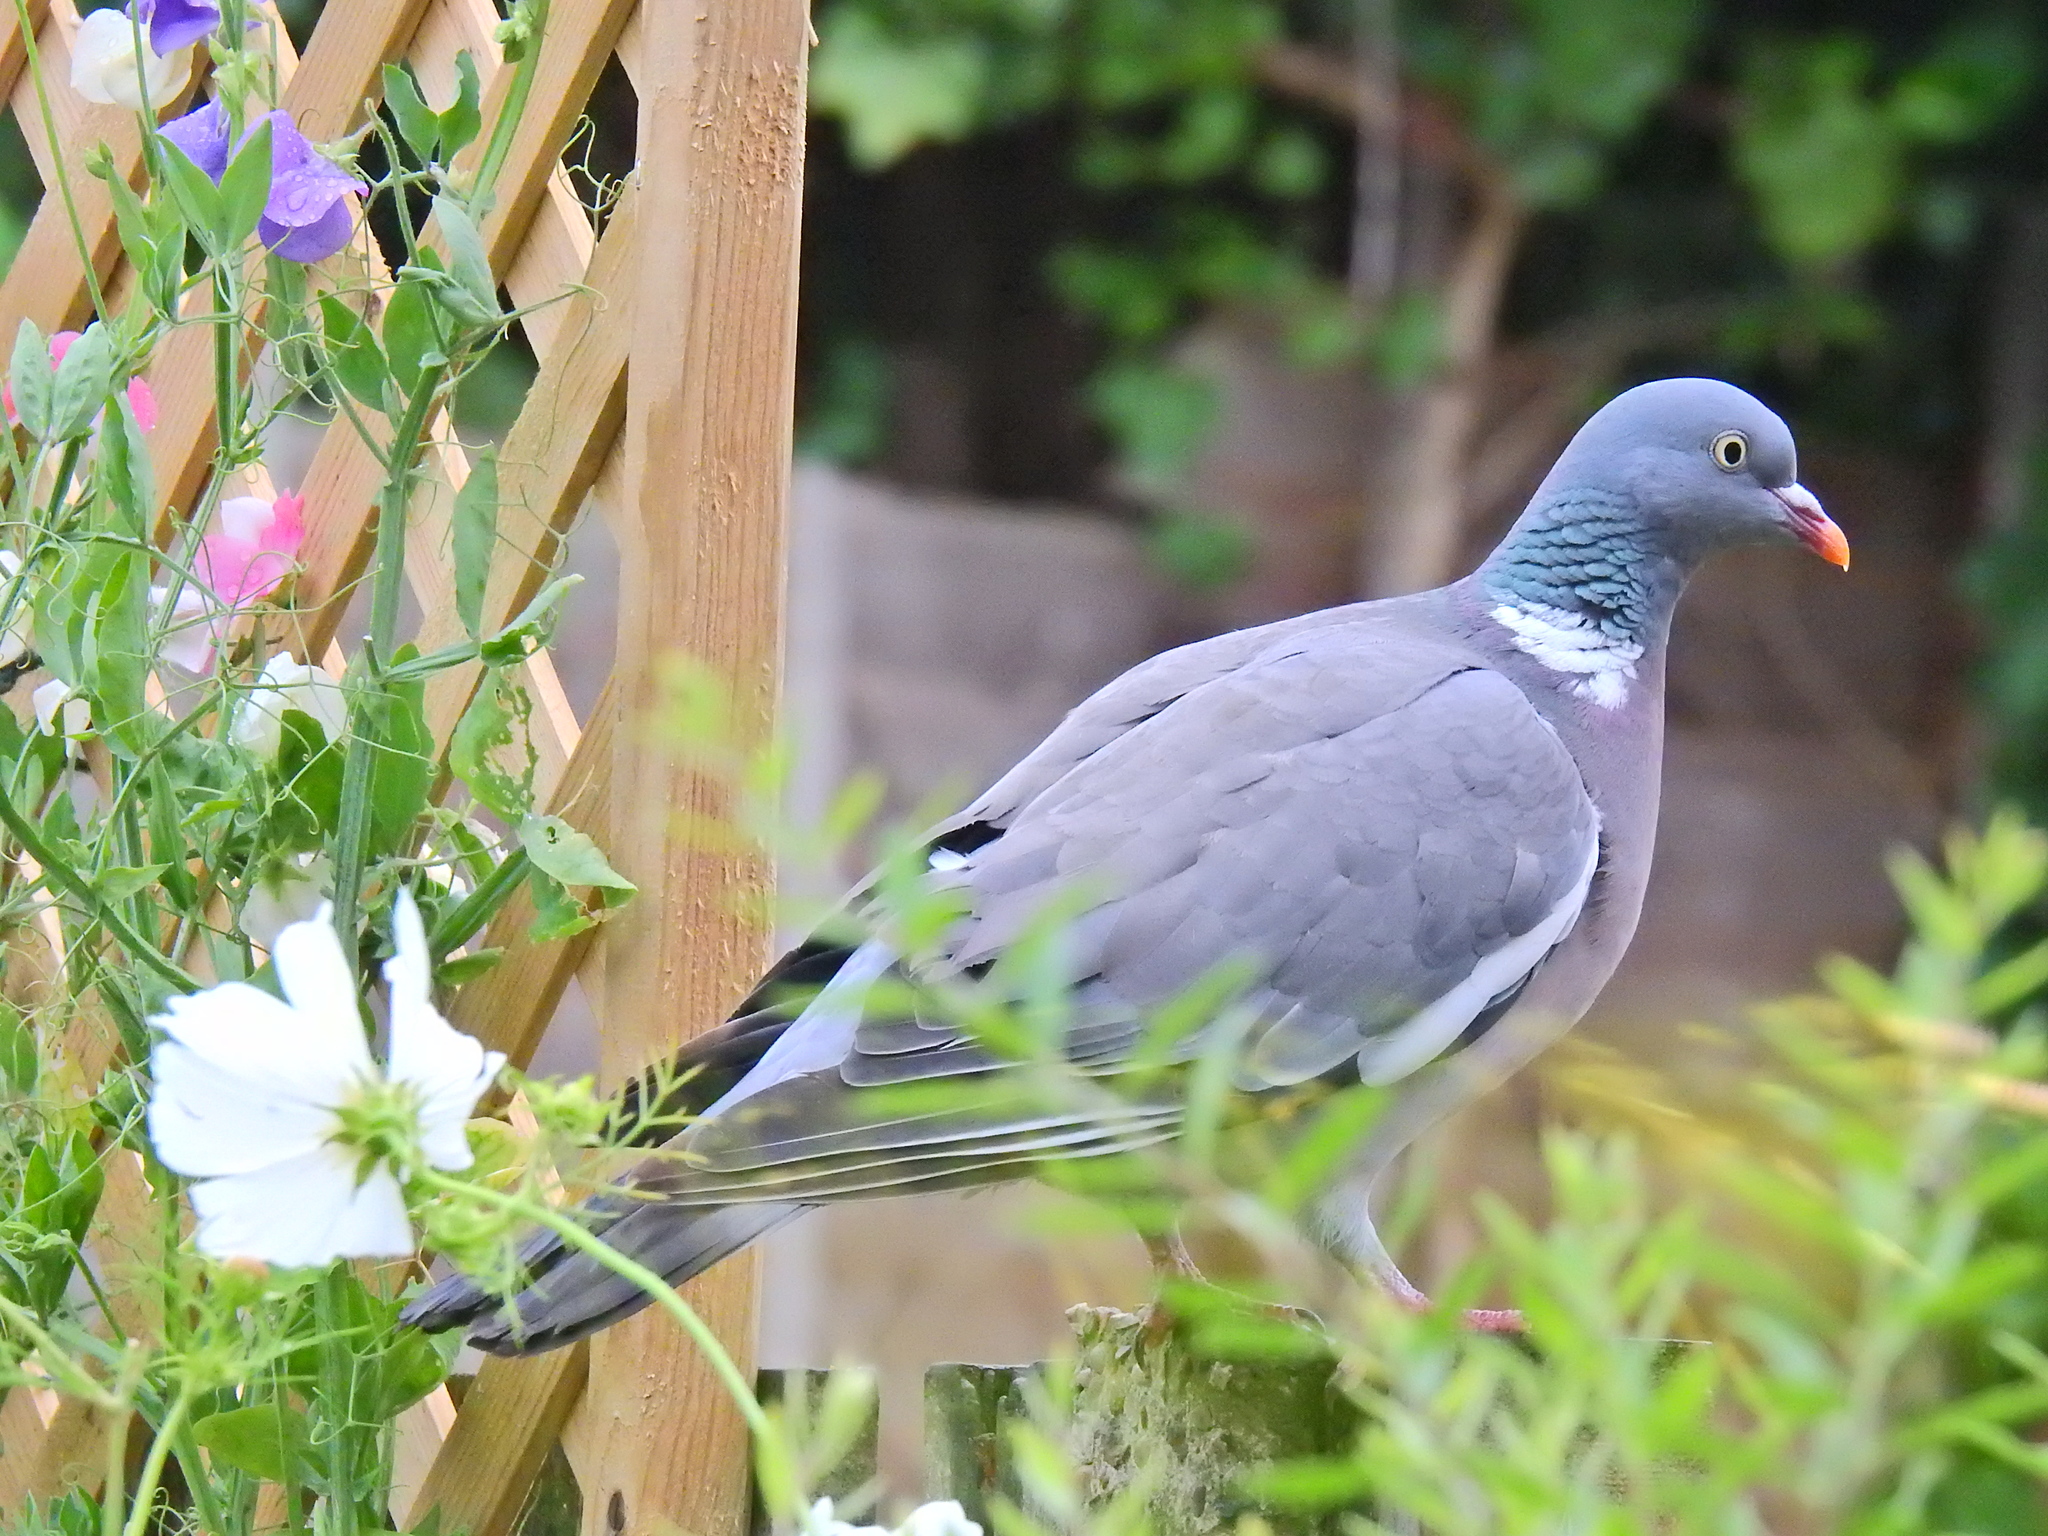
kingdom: Animalia
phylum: Chordata
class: Aves
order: Columbiformes
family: Columbidae
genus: Columba
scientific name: Columba palumbus
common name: Common wood pigeon
